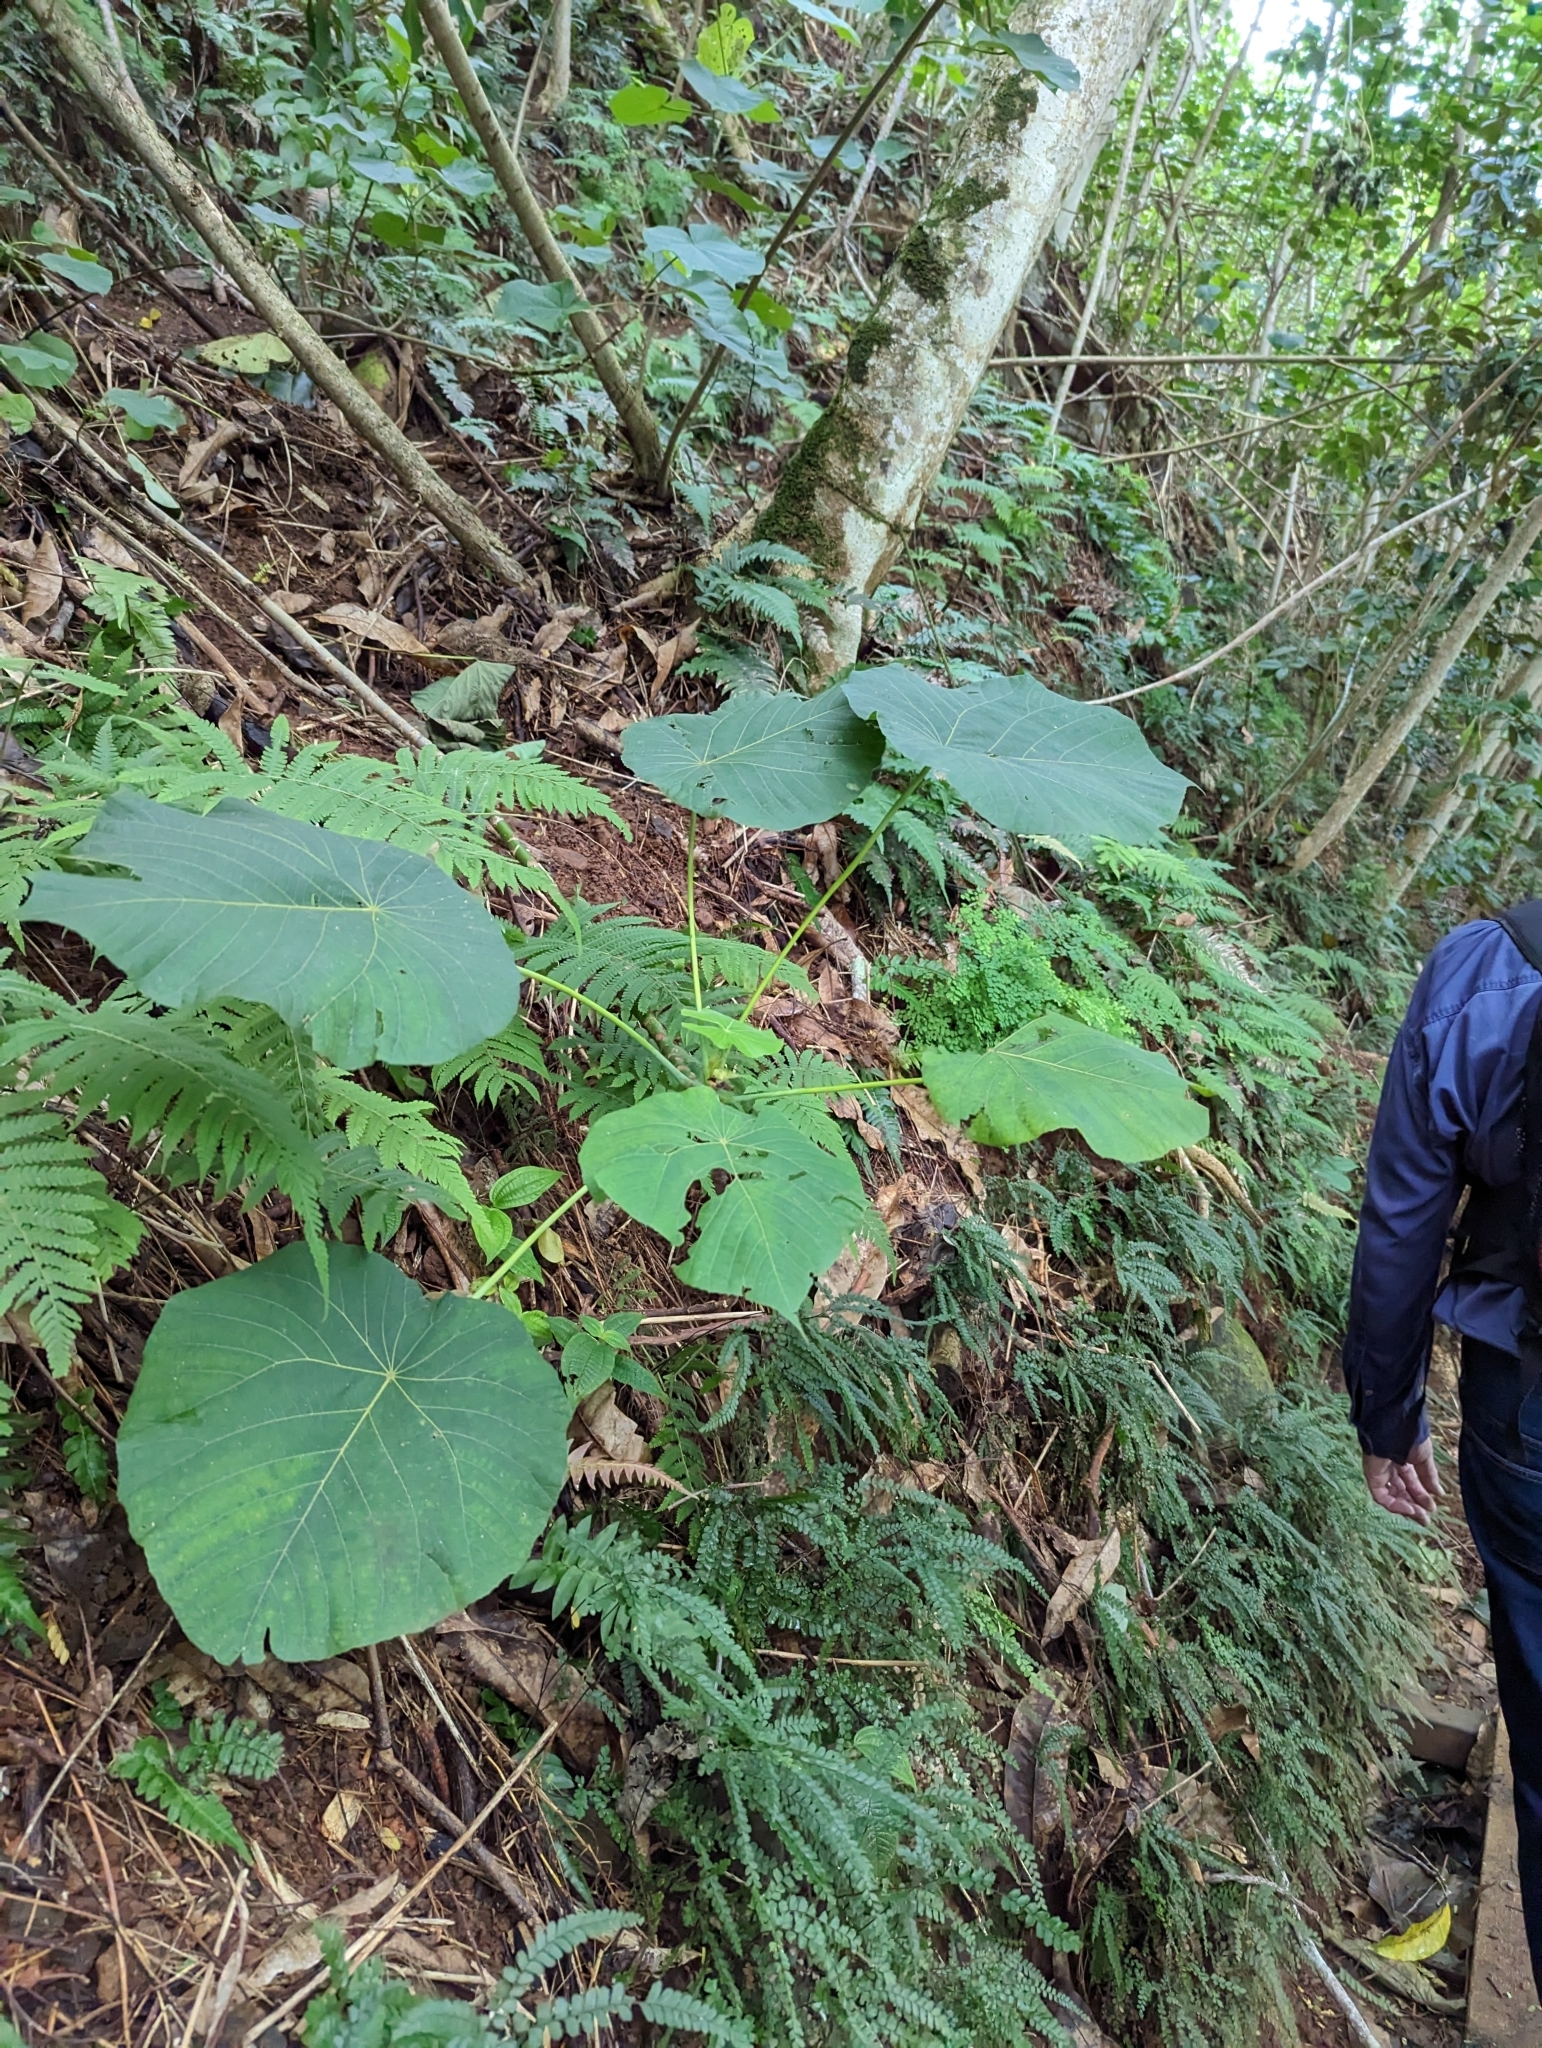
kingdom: Plantae
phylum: Tracheophyta
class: Magnoliopsida
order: Malpighiales
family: Euphorbiaceae
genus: Macaranga
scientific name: Macaranga tanarius
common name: Parasol leaf tree
